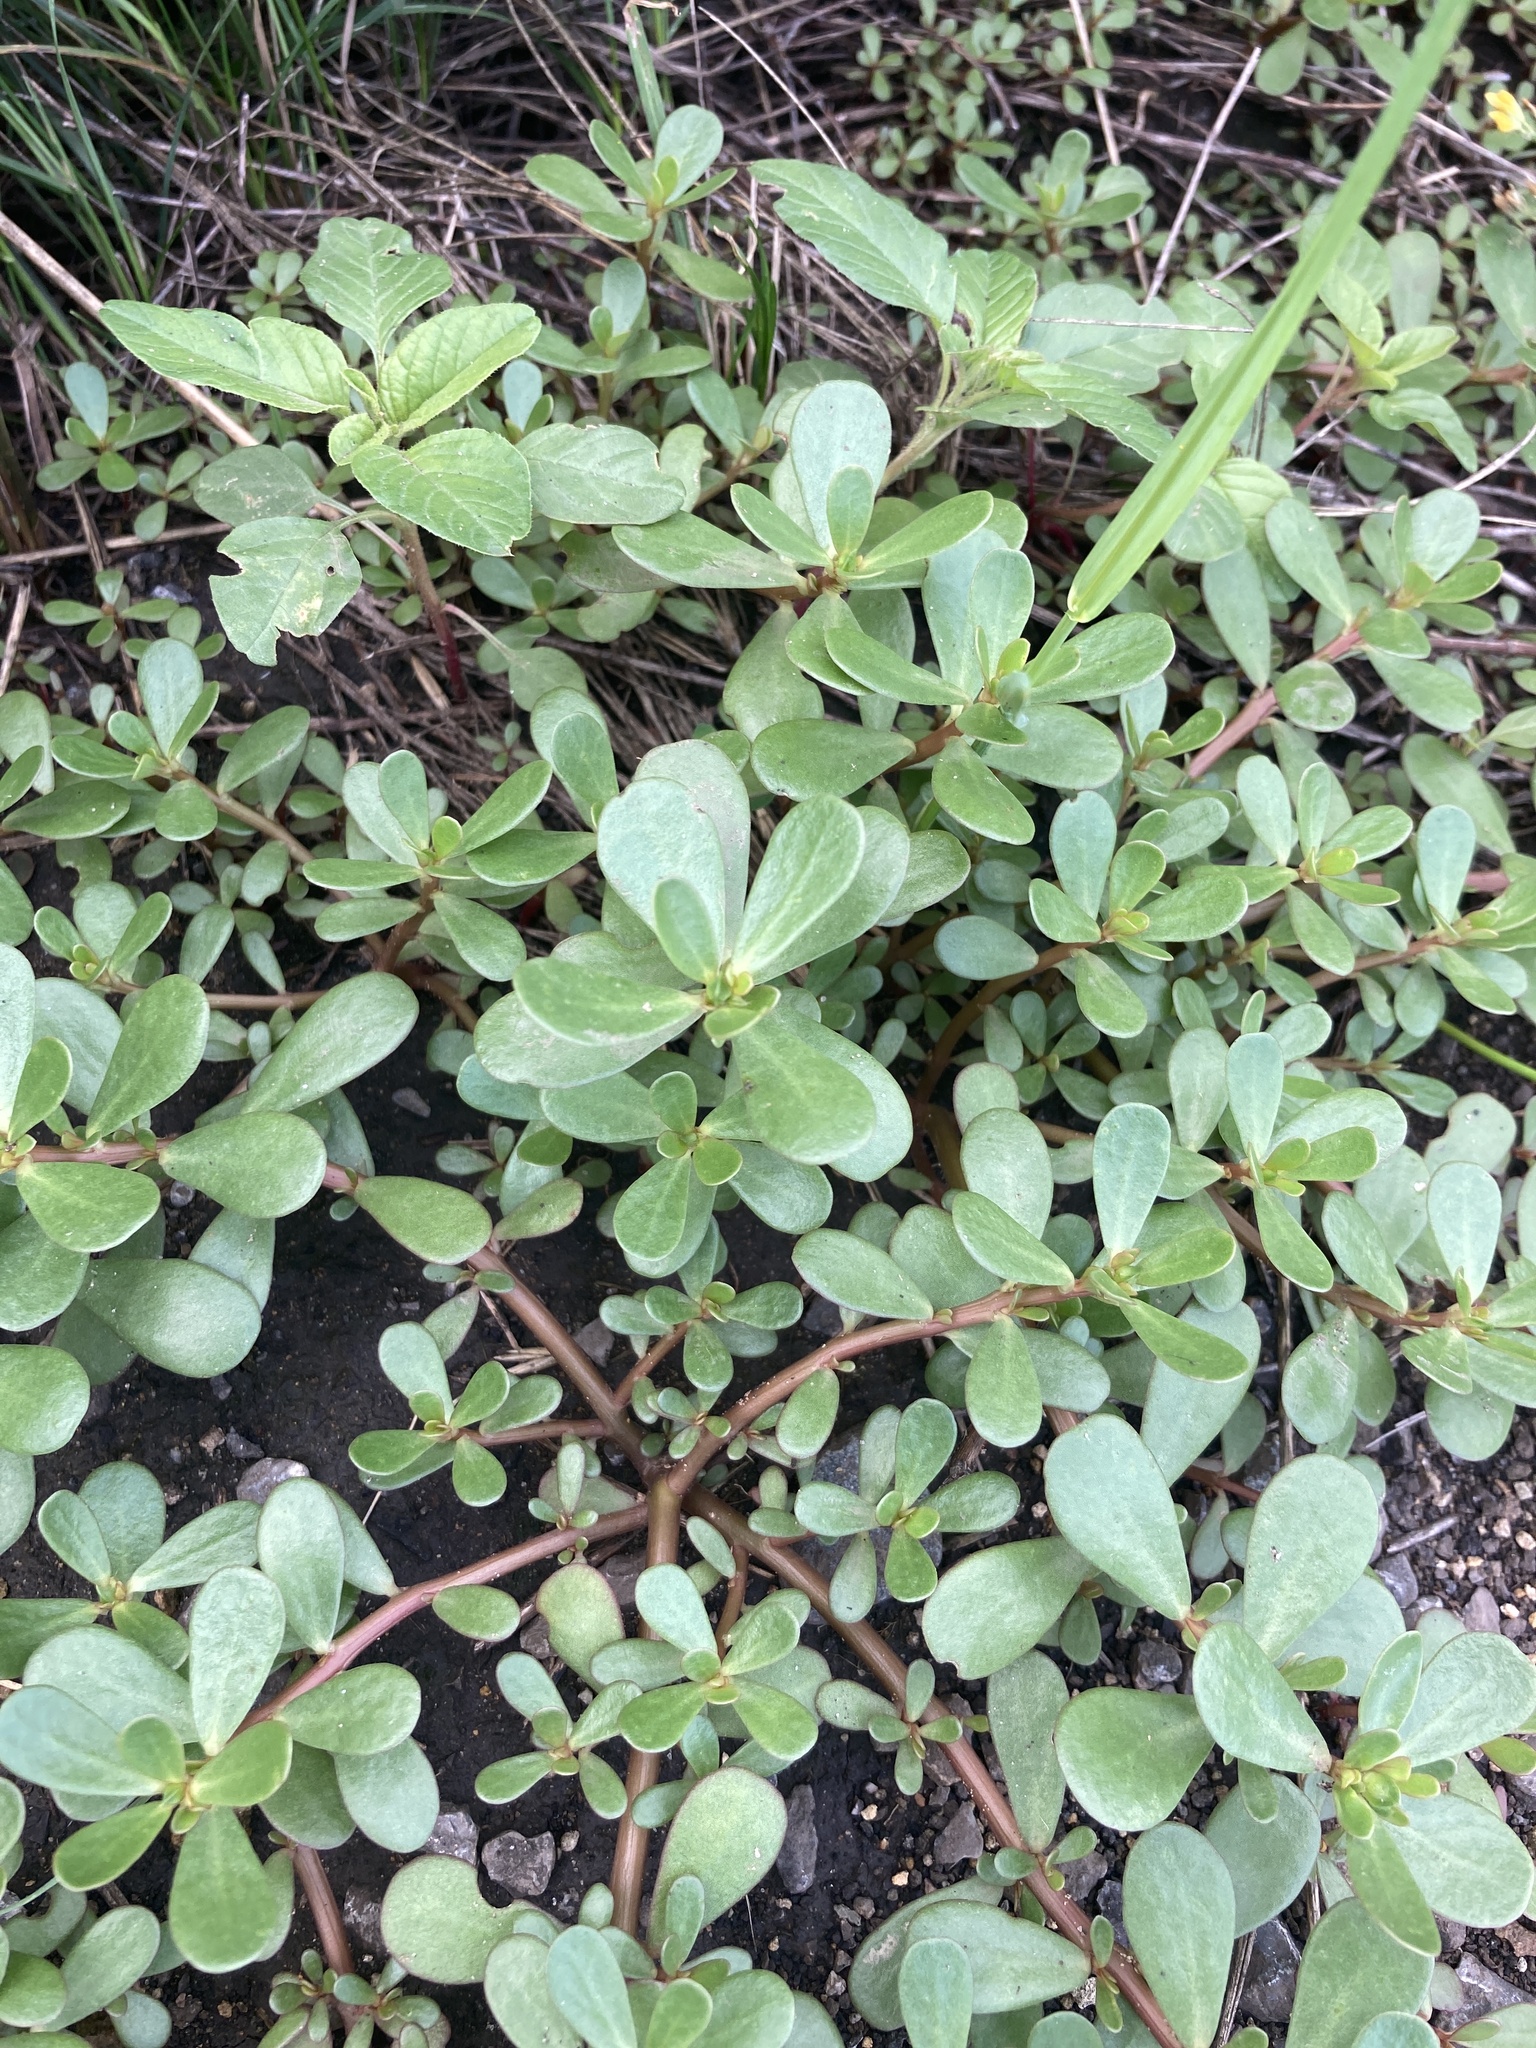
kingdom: Plantae
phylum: Tracheophyta
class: Magnoliopsida
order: Caryophyllales
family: Portulacaceae
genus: Portulaca
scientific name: Portulaca oleracea
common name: Common purslane
